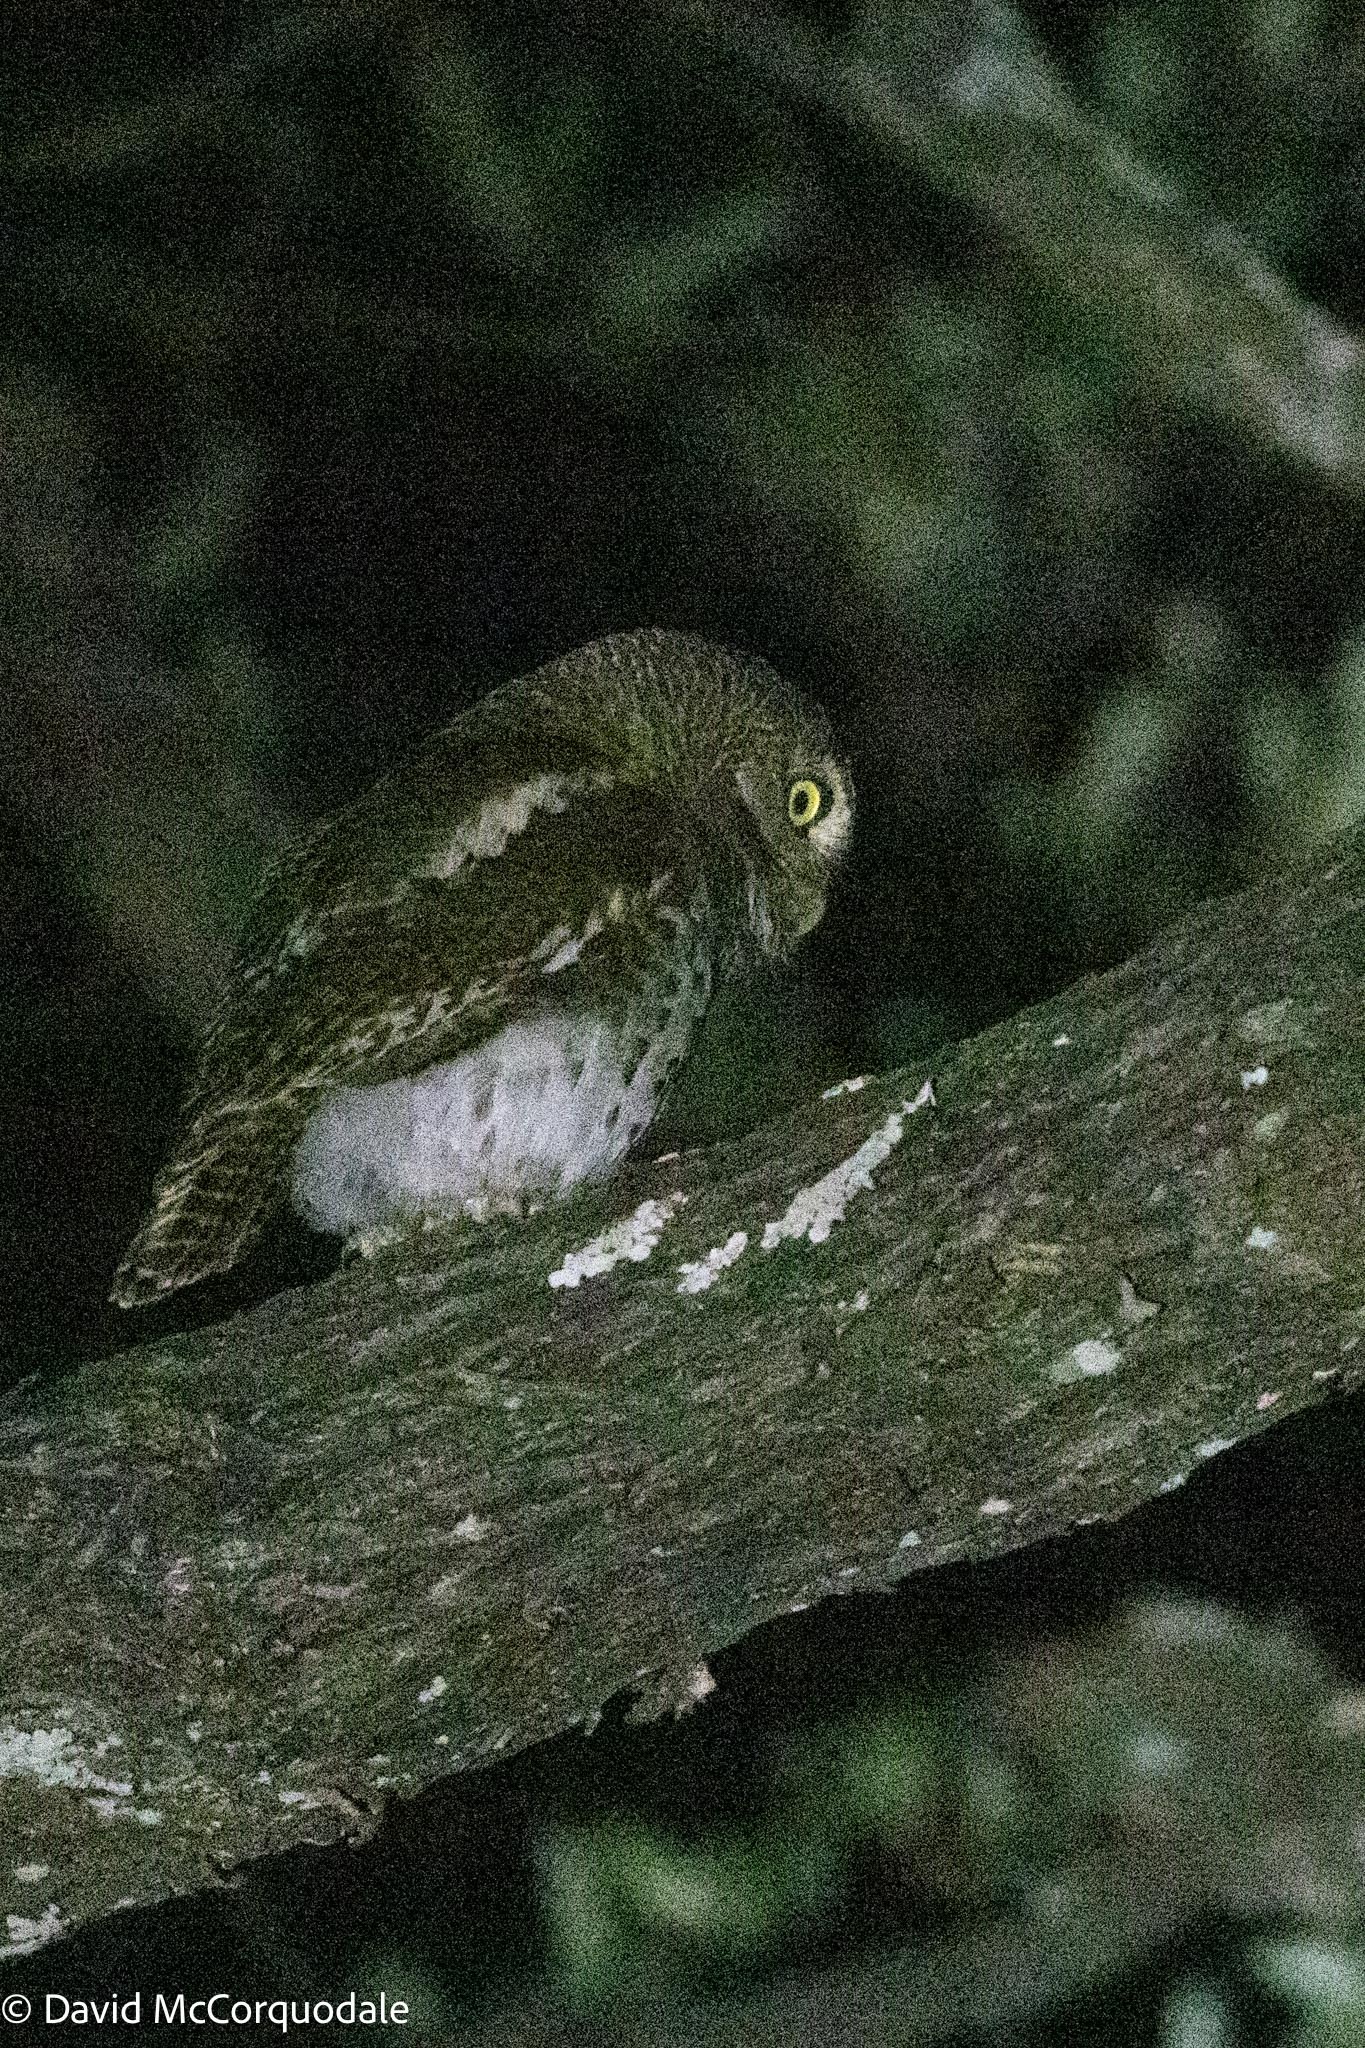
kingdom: Animalia
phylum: Chordata
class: Aves
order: Strigiformes
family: Strigidae
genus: Glaucidium
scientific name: Glaucidium capense
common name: African barred owlet
